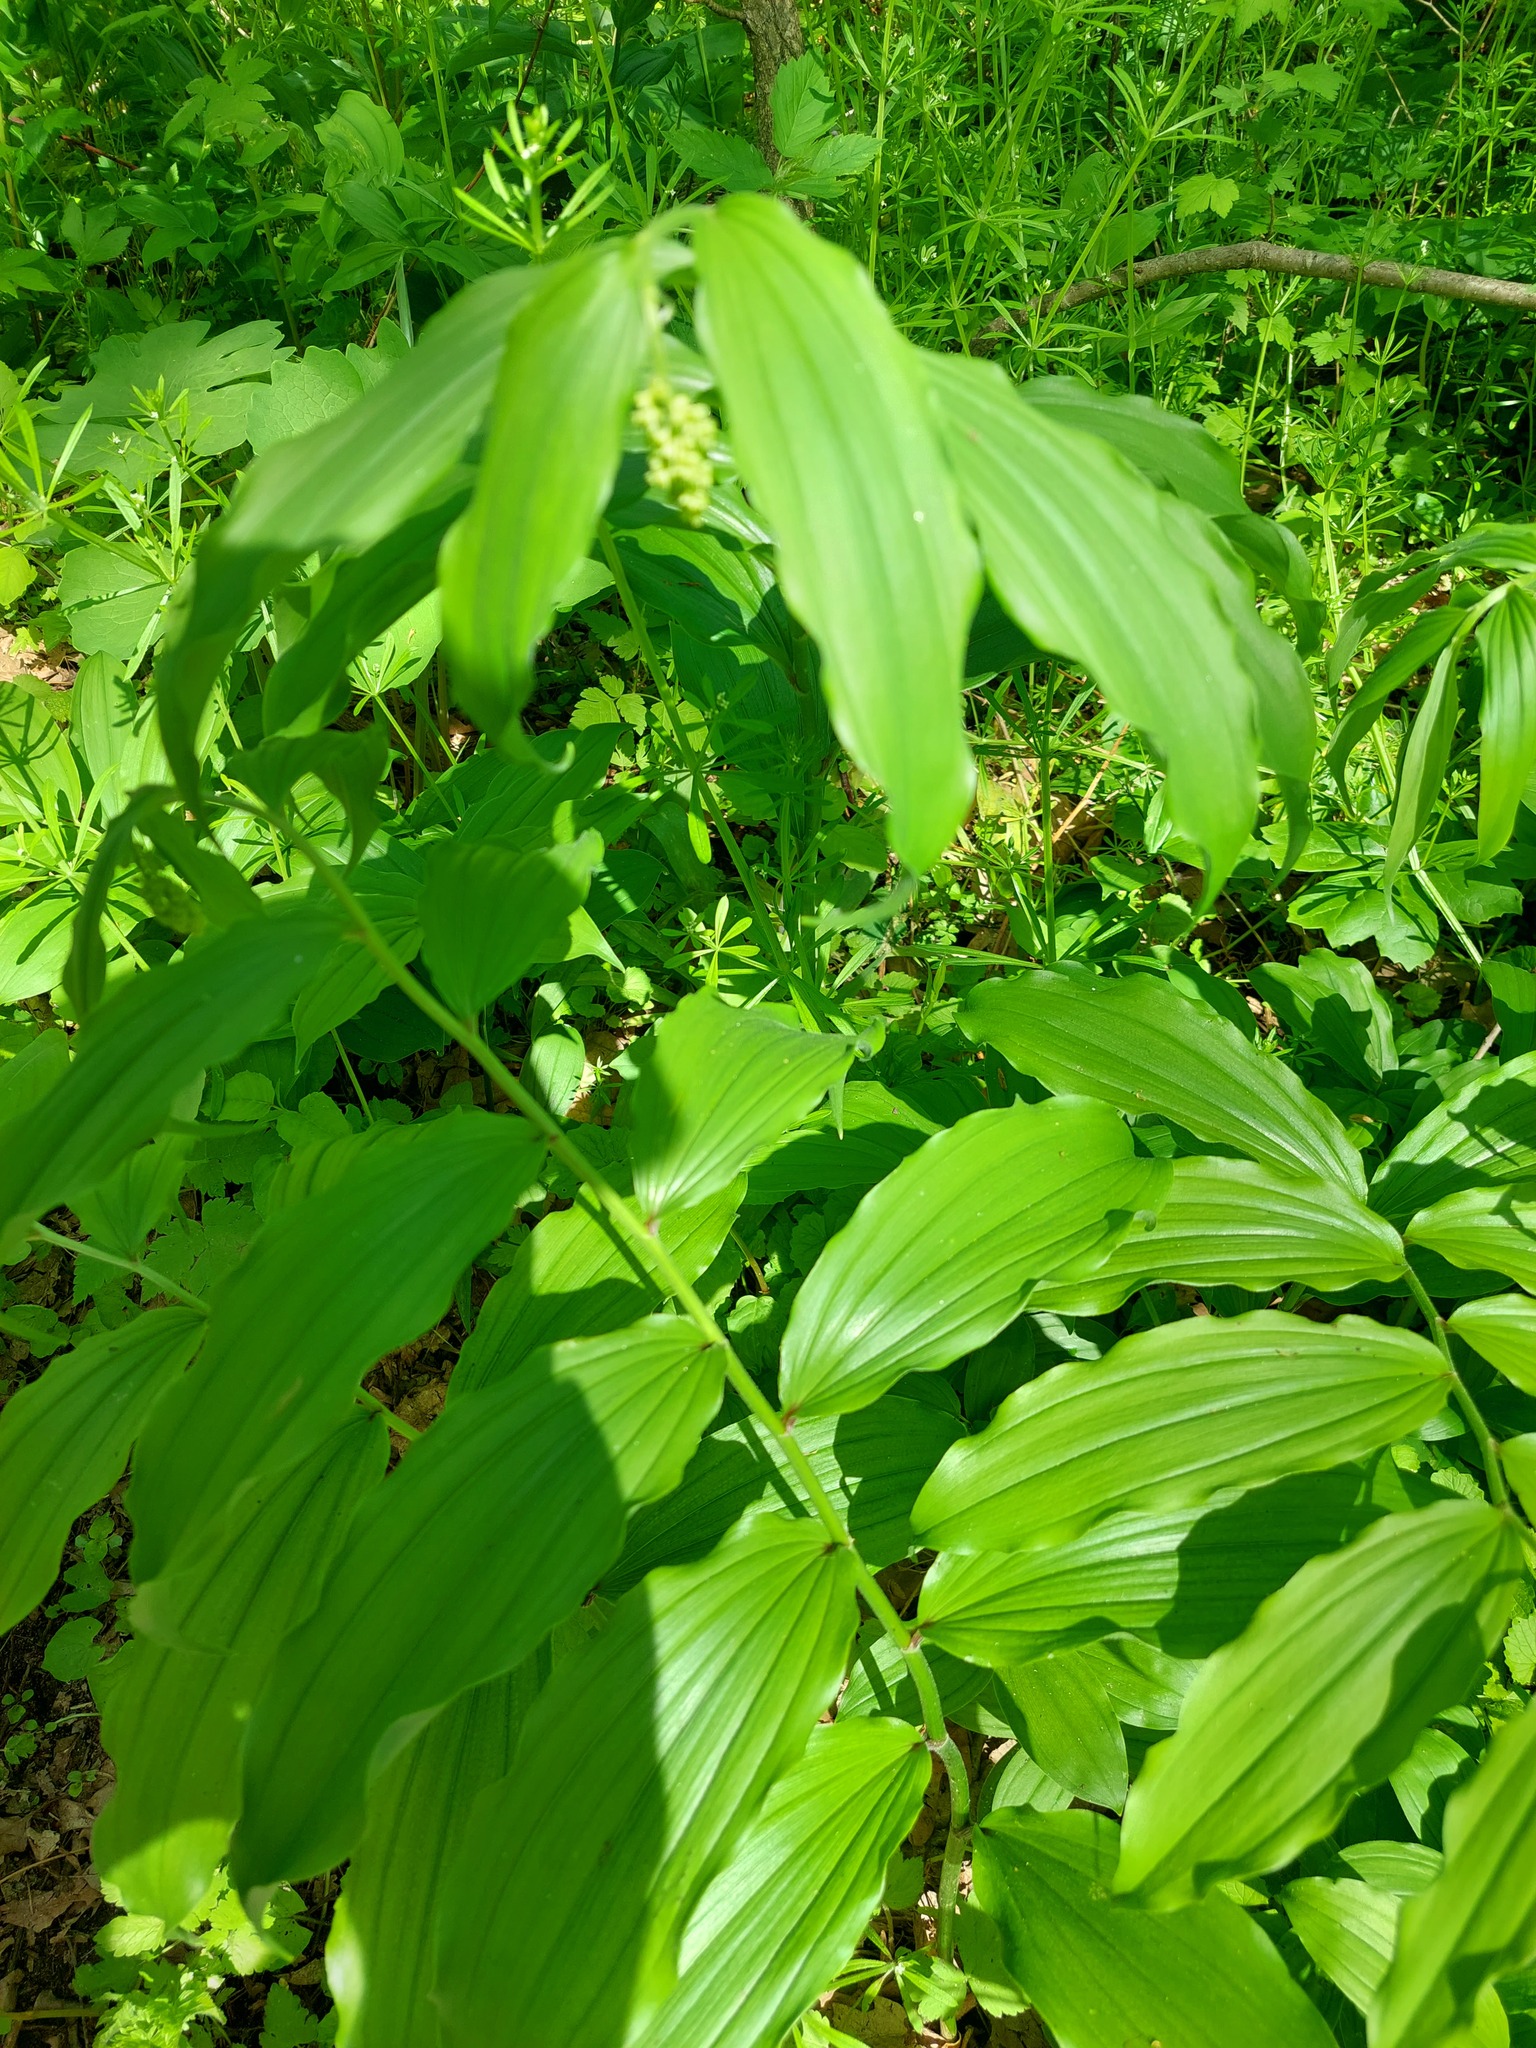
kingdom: Plantae
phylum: Tracheophyta
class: Liliopsida
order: Asparagales
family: Asparagaceae
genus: Maianthemum
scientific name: Maianthemum racemosum
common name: False spikenard
